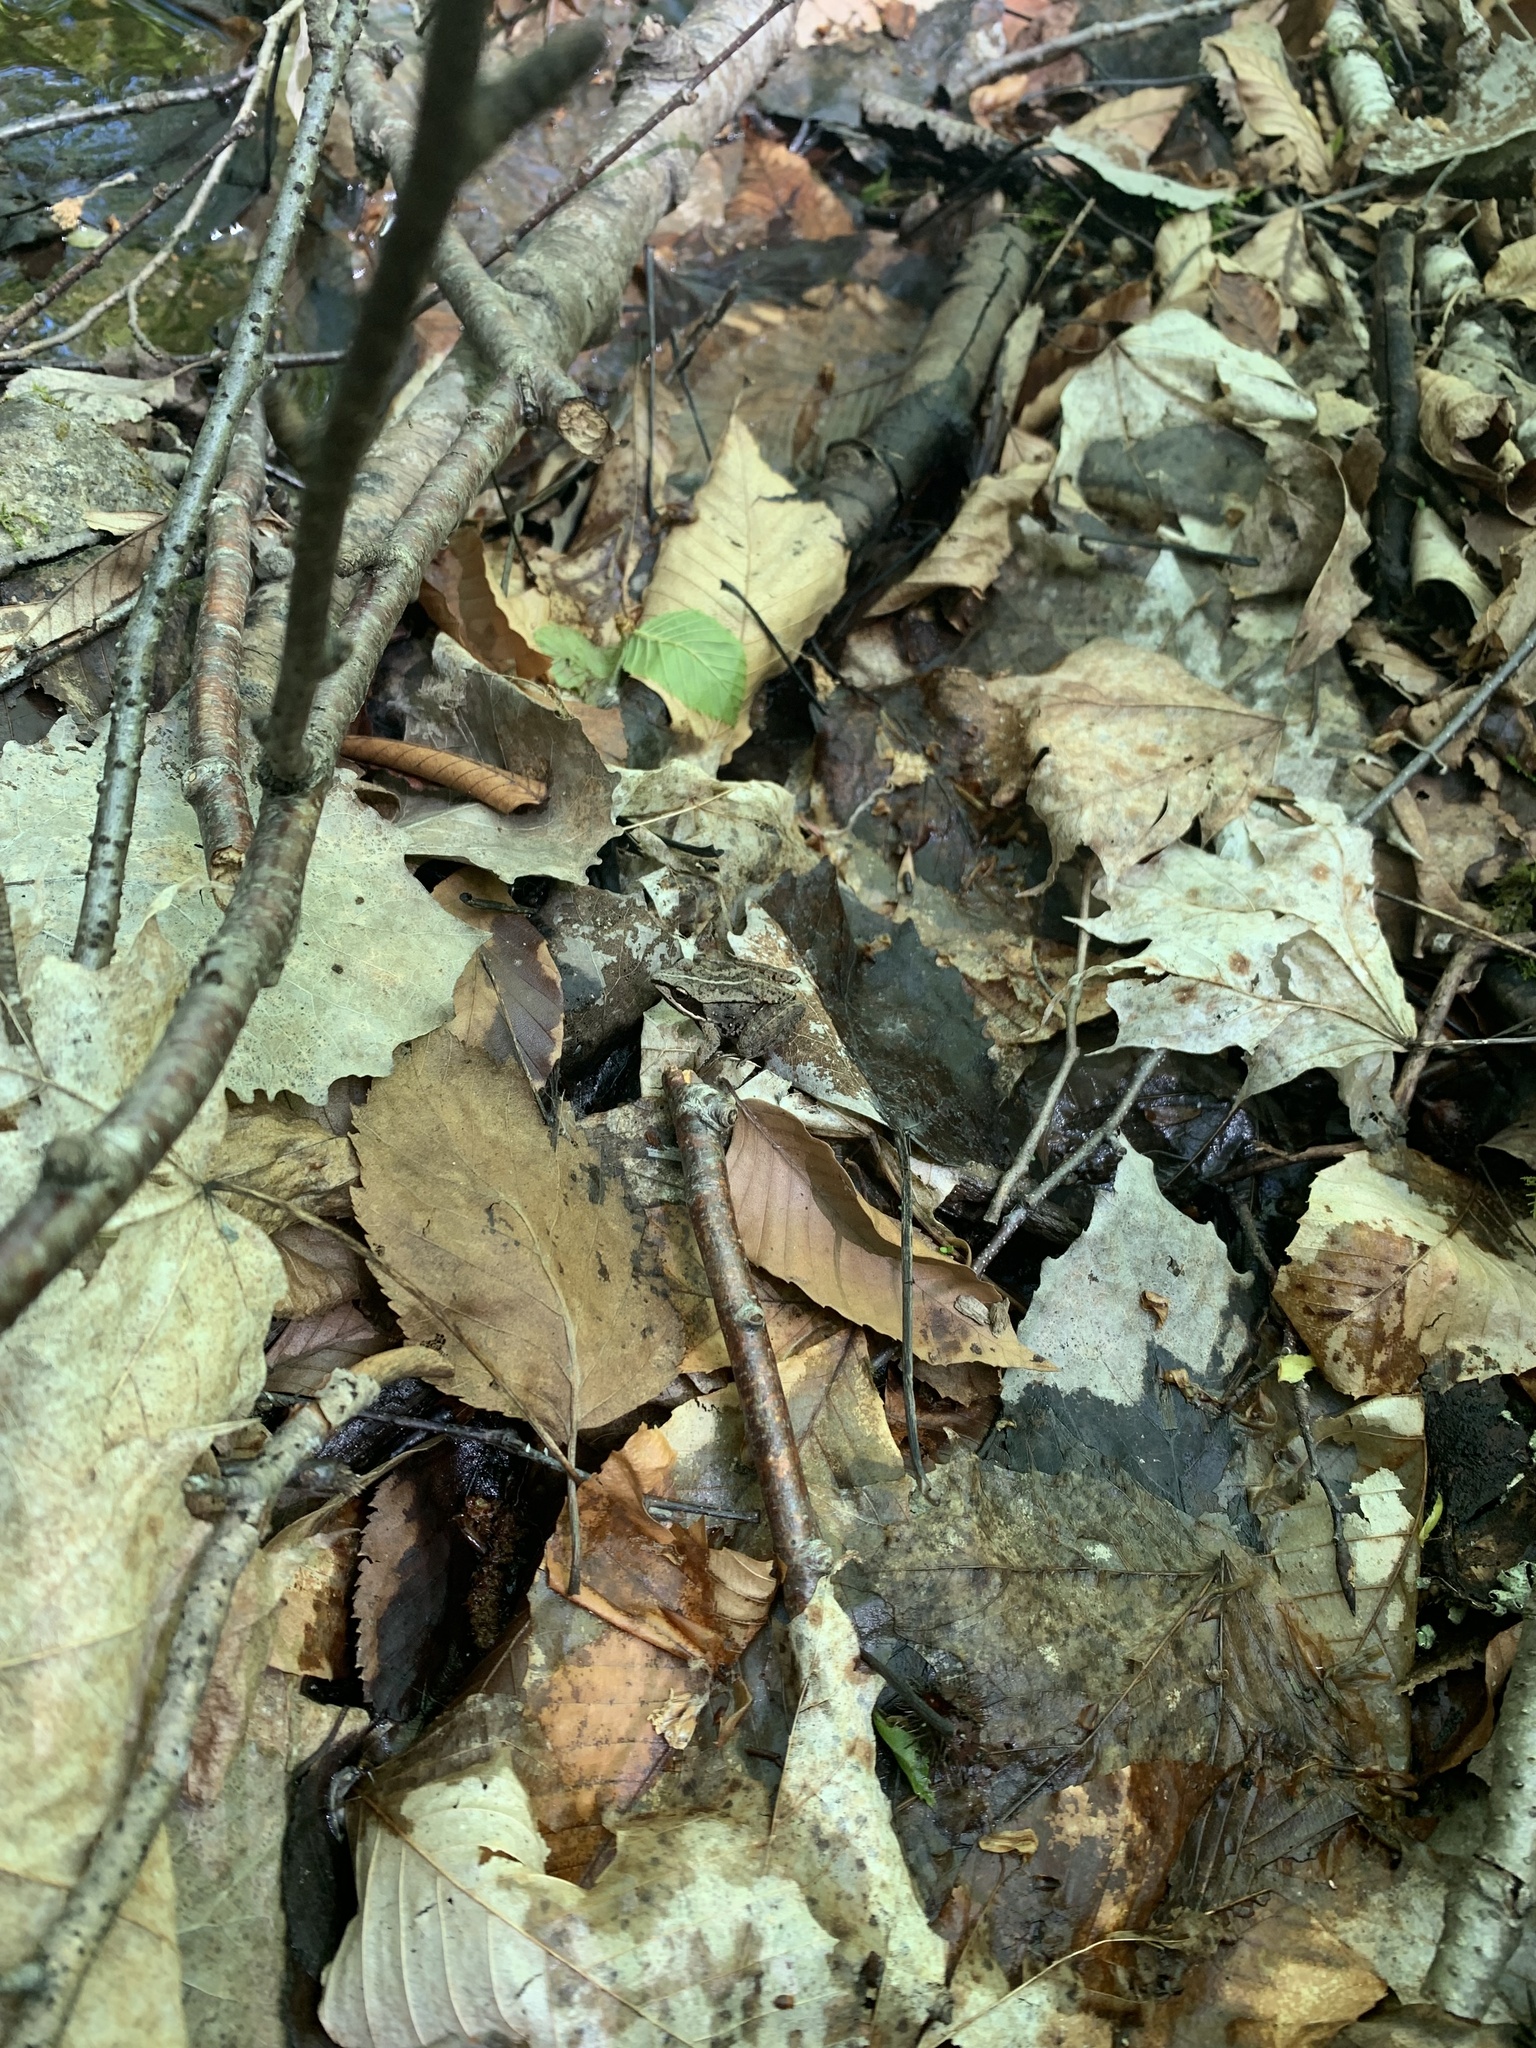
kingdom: Animalia
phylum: Chordata
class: Amphibia
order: Anura
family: Ranidae
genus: Lithobates
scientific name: Lithobates sylvaticus
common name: Wood frog
